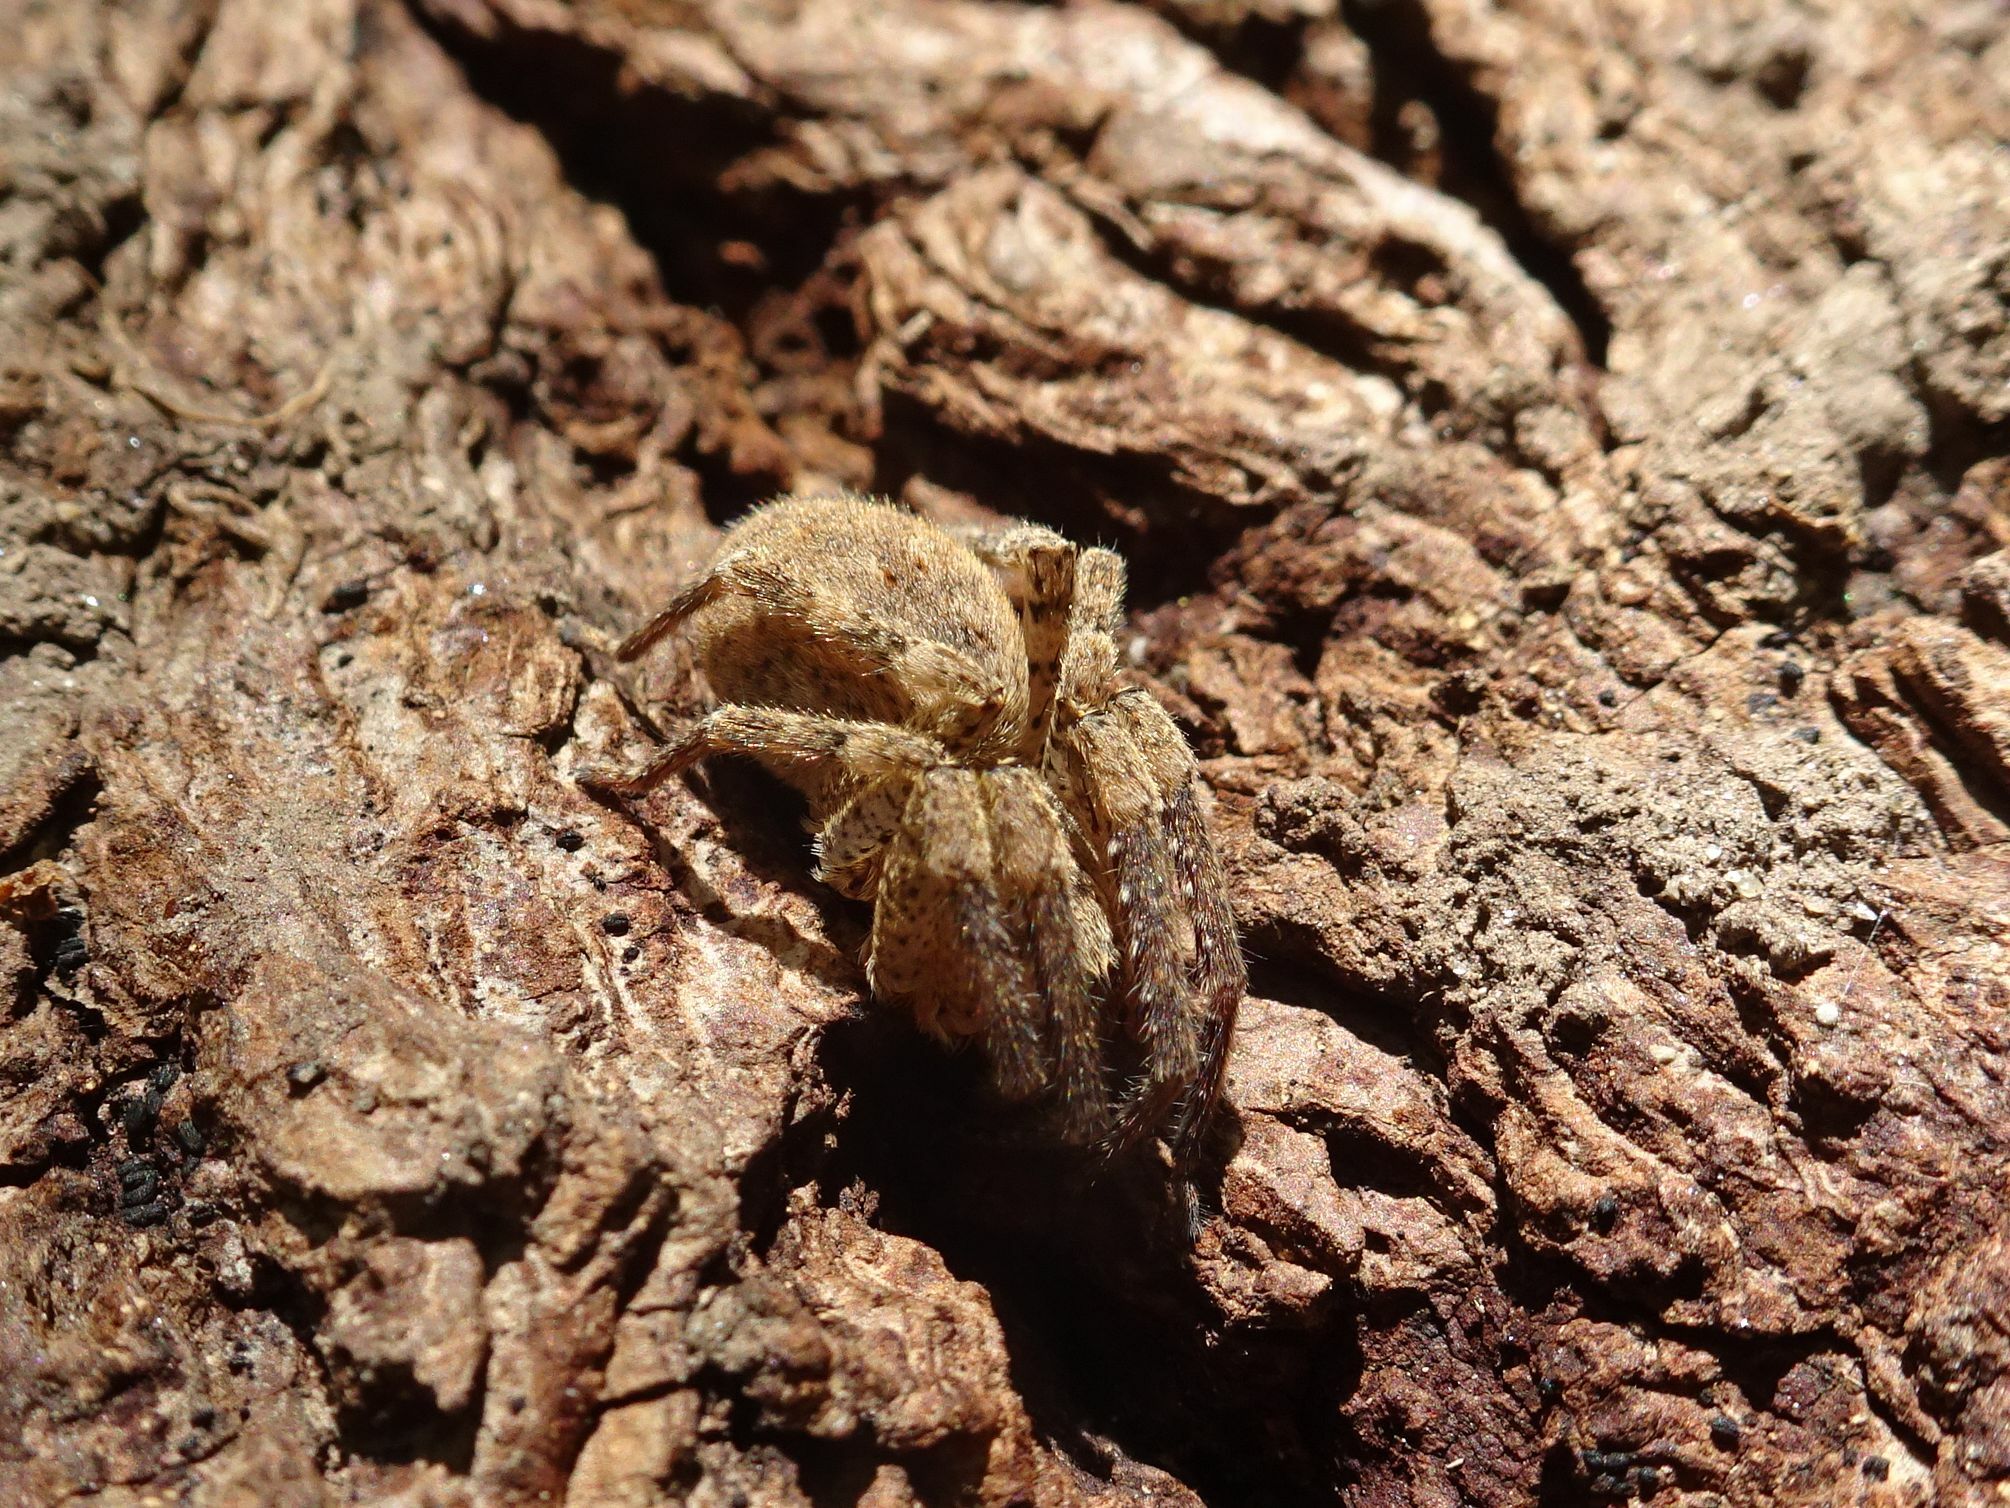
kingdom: Animalia
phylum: Arthropoda
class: Arachnida
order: Araneae
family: Zoropsidae
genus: Zoropsis
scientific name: Zoropsis spinimana
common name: Zoropsid spider
